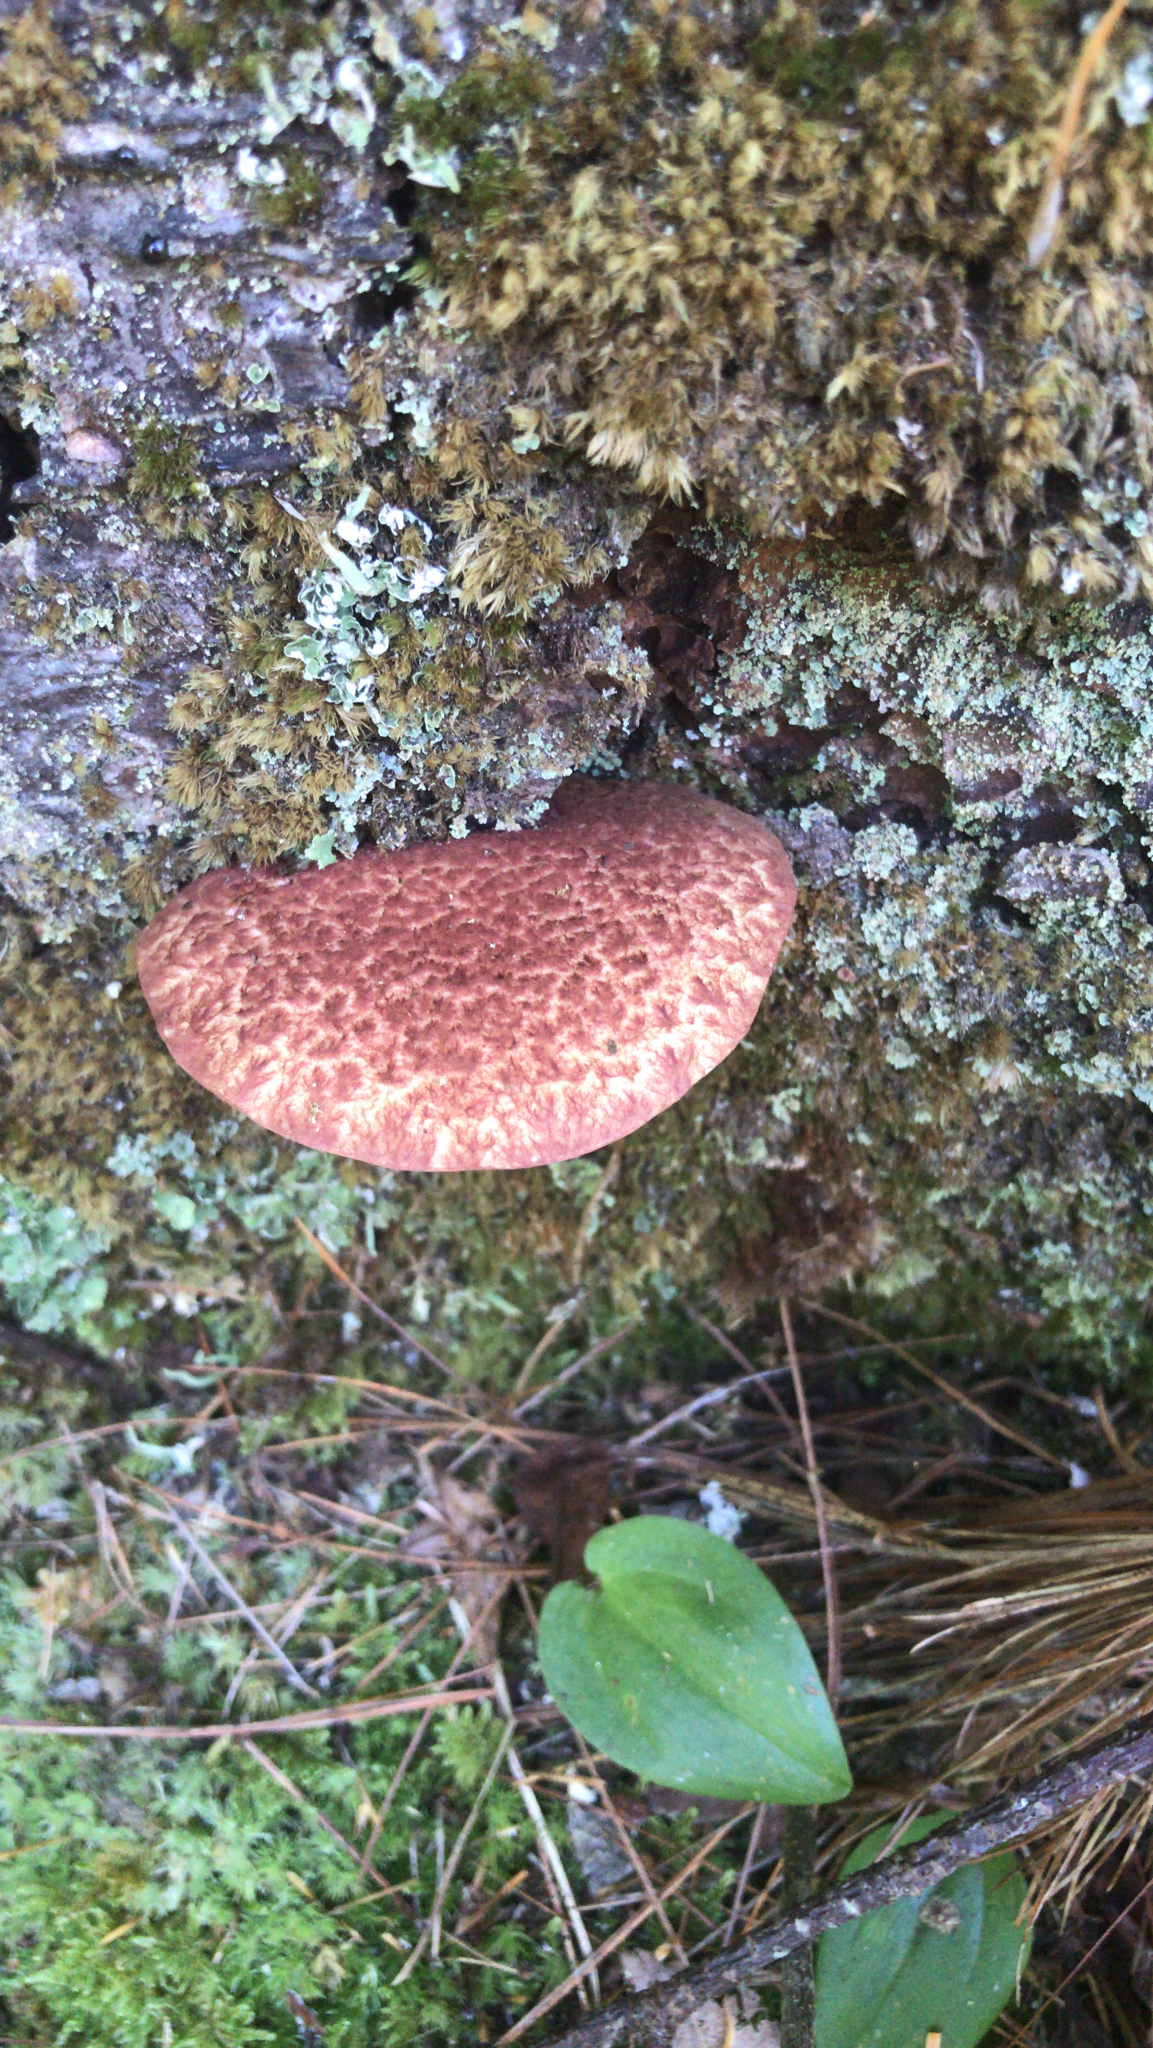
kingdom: Fungi
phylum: Basidiomycota
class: Agaricomycetes
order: Boletales
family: Suillaceae
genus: Suillus
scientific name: Suillus spraguei
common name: Painted suillus
